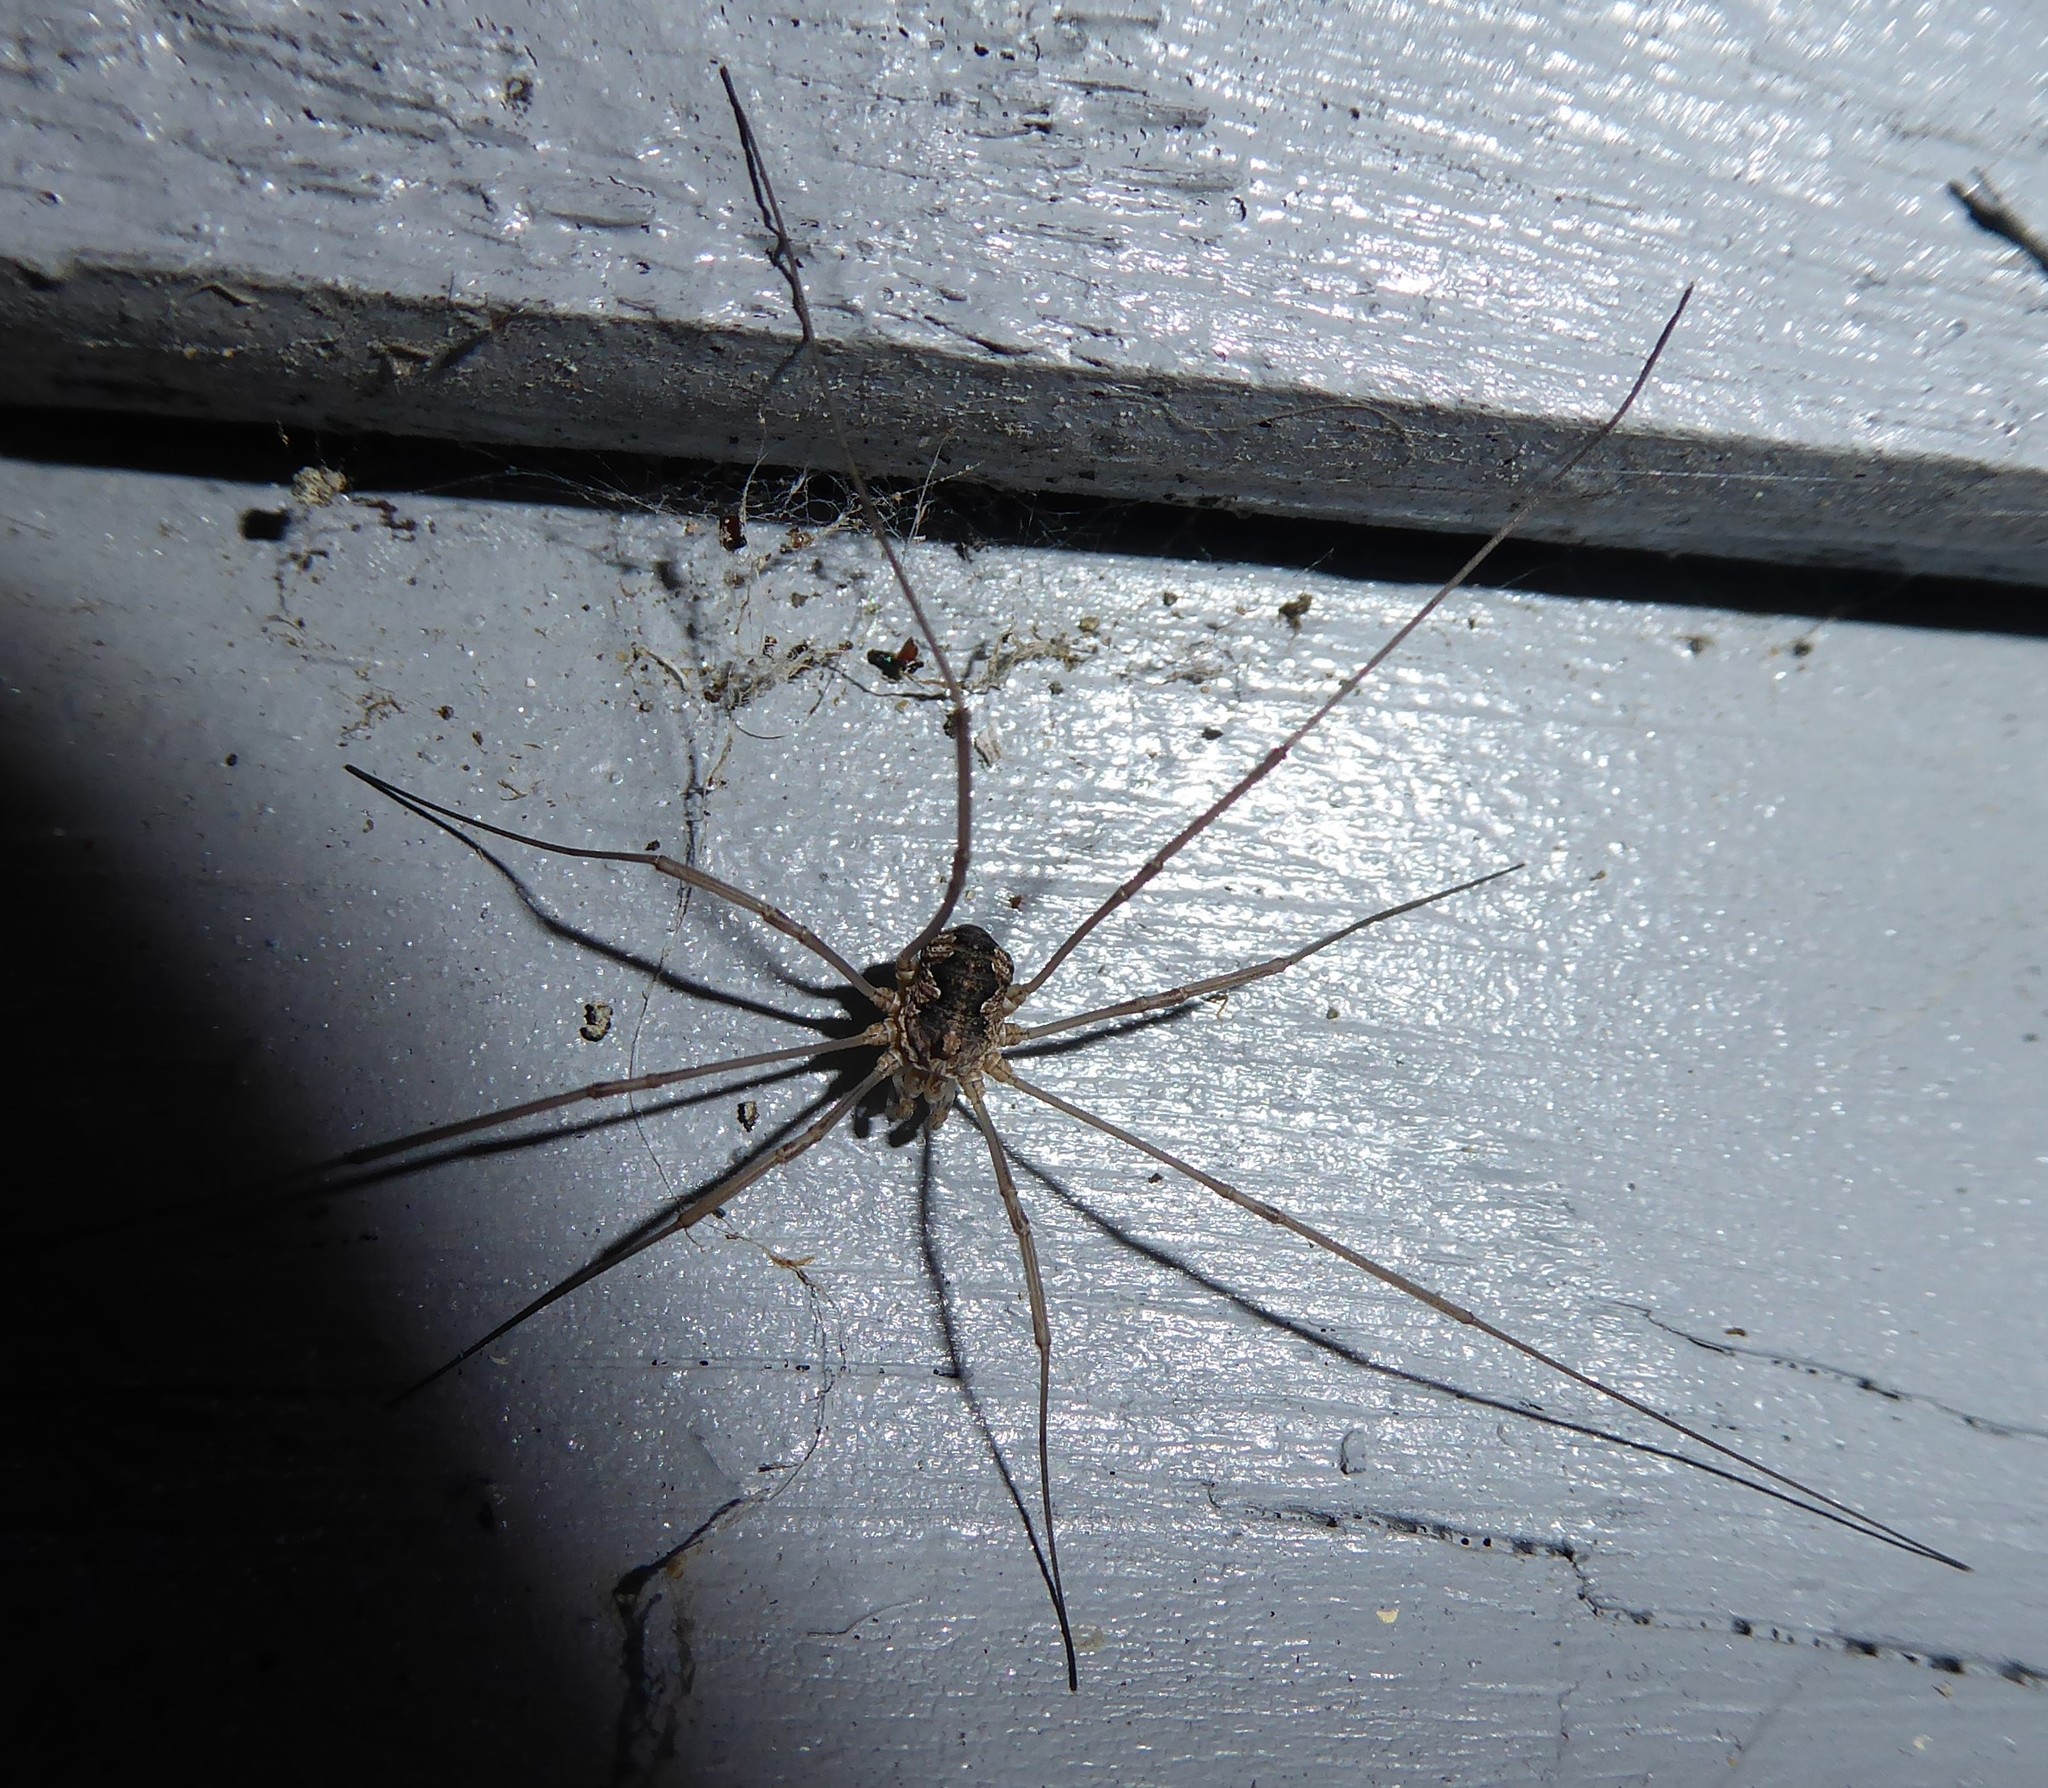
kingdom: Animalia
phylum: Arthropoda
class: Arachnida
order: Opiliones
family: Phalangiidae
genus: Phalangium
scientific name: Phalangium opilio
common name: Daddy longleg
